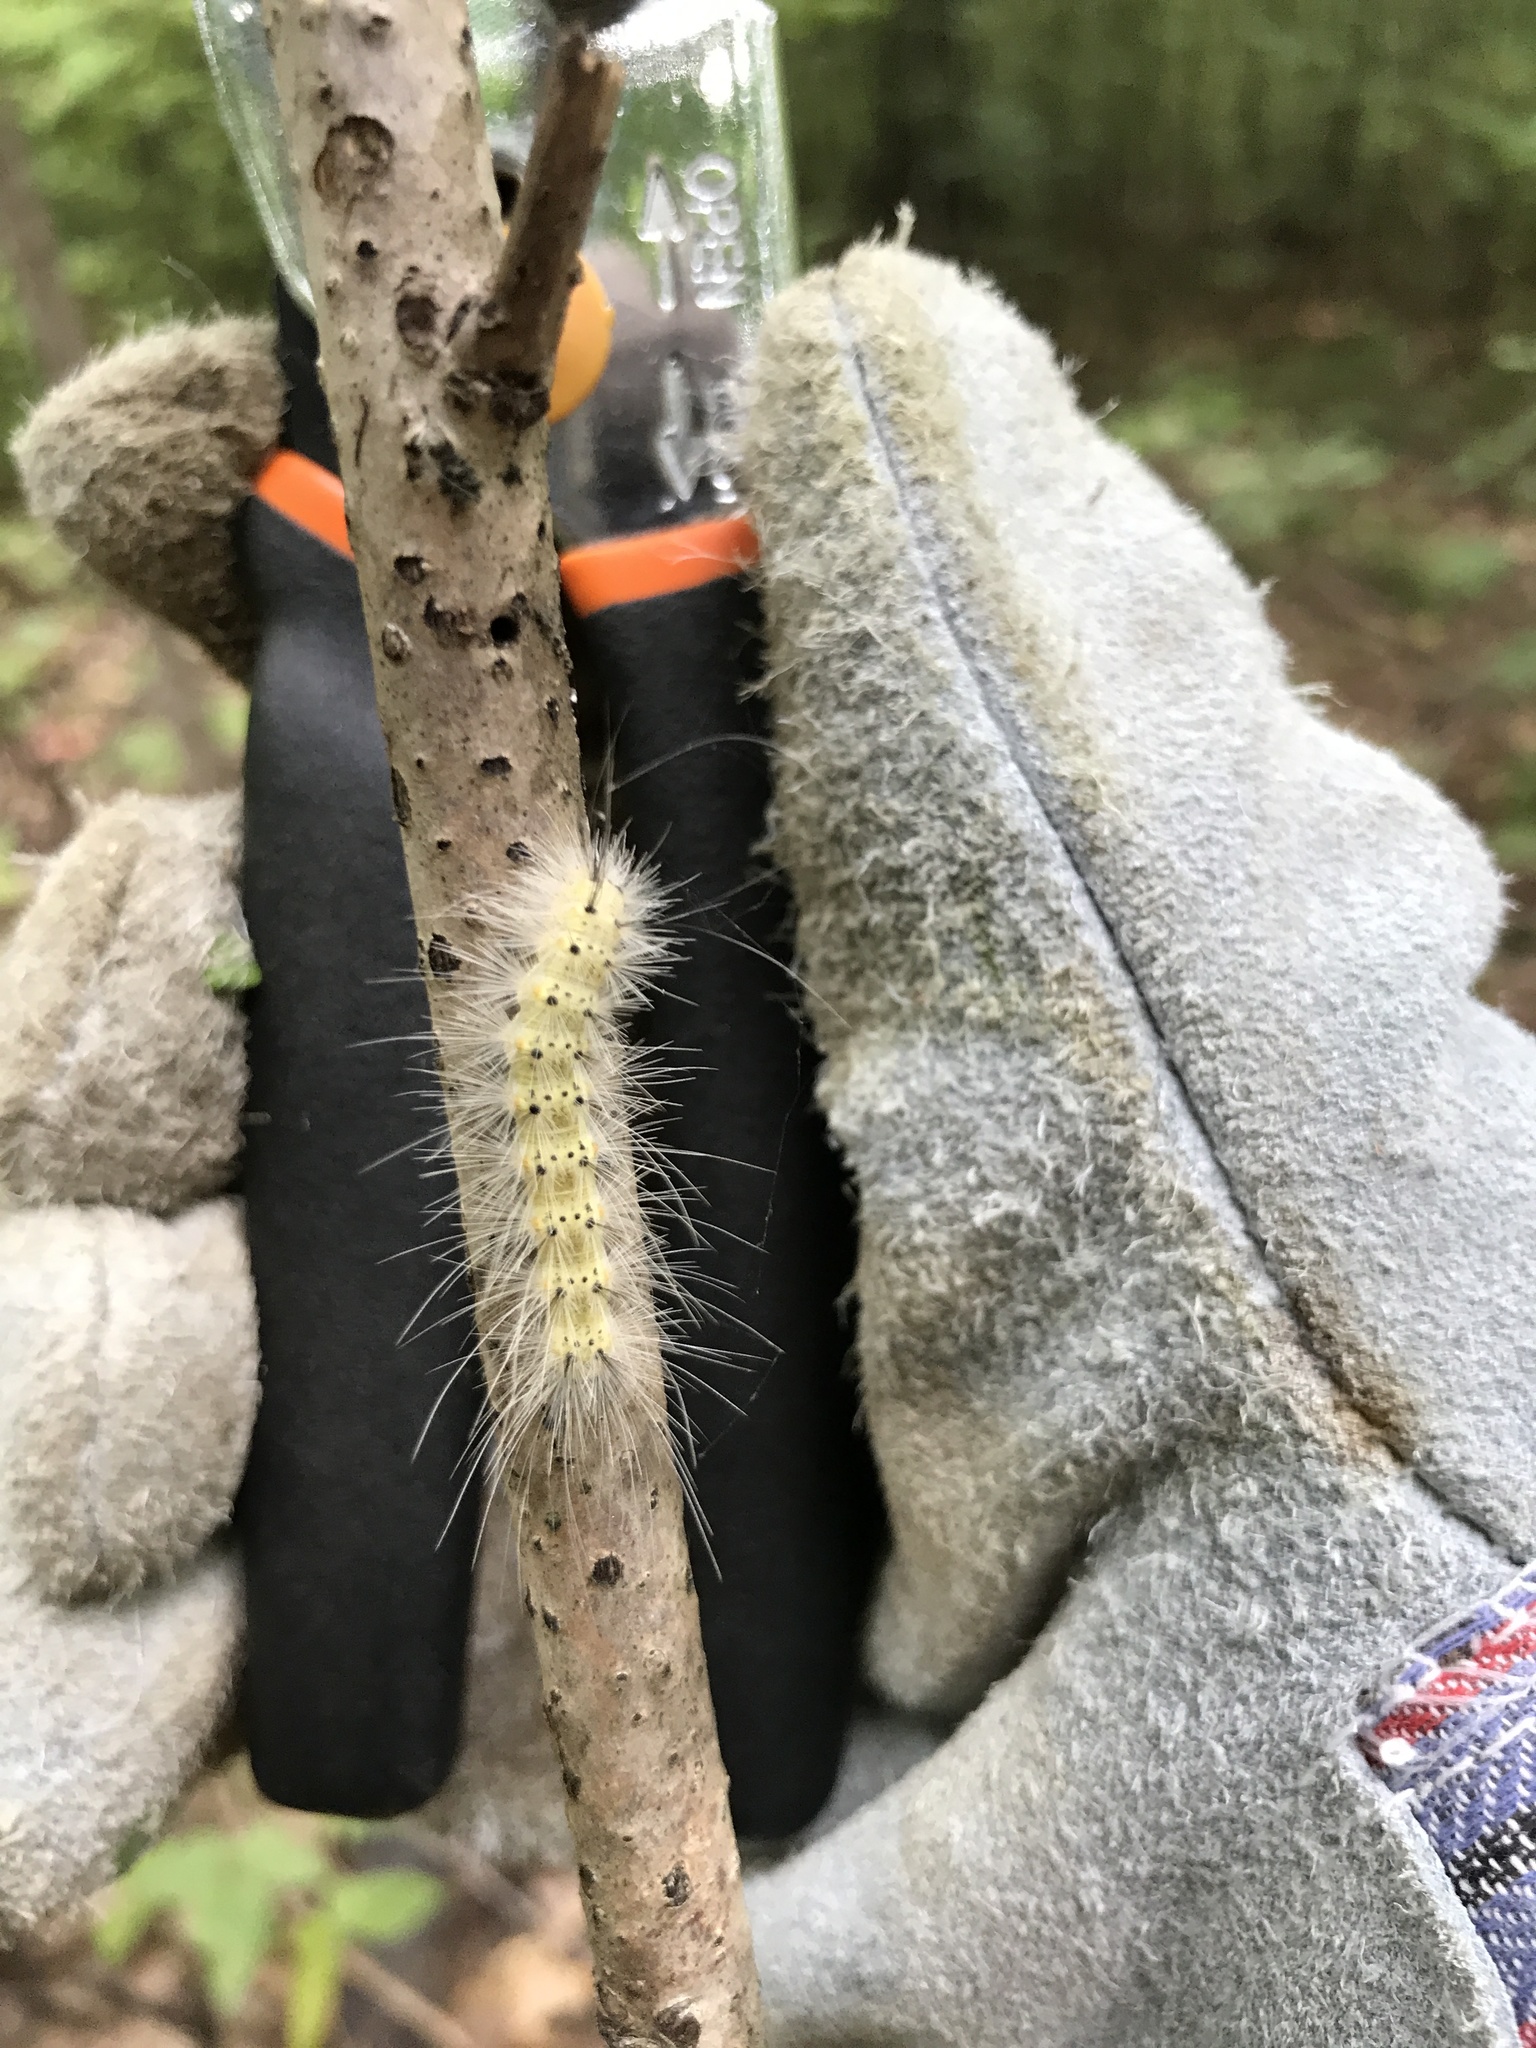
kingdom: Animalia
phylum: Arthropoda
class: Insecta
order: Lepidoptera
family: Erebidae
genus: Hyphantria
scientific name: Hyphantria cunea
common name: American white moth
